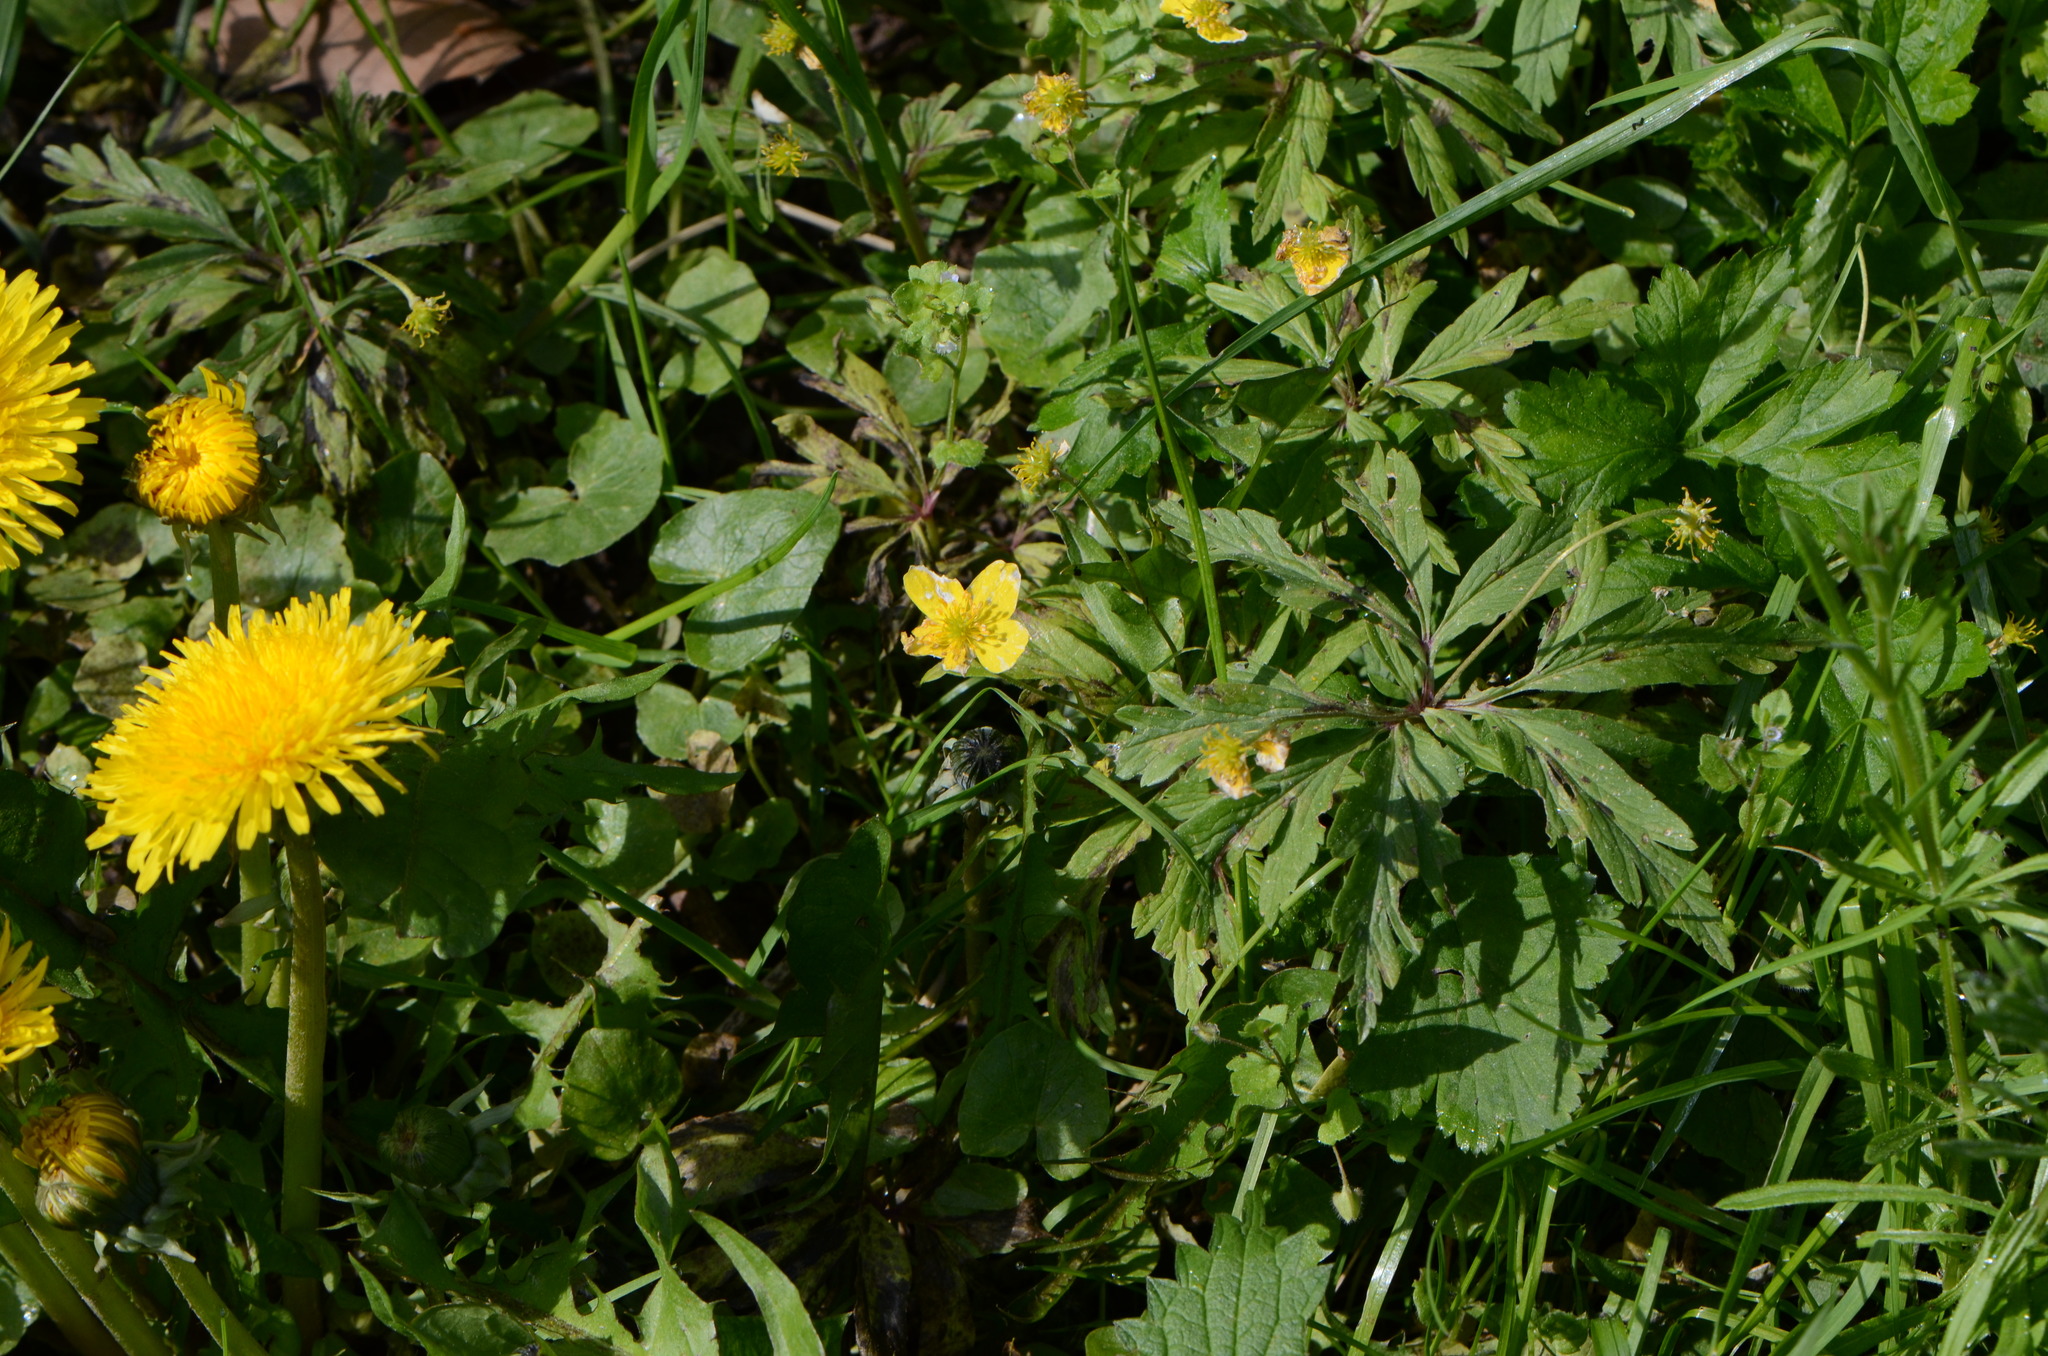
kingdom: Plantae
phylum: Tracheophyta
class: Magnoliopsida
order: Ranunculales
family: Ranunculaceae
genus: Anemone
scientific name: Anemone ranunculoides
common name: Yellow anemone
